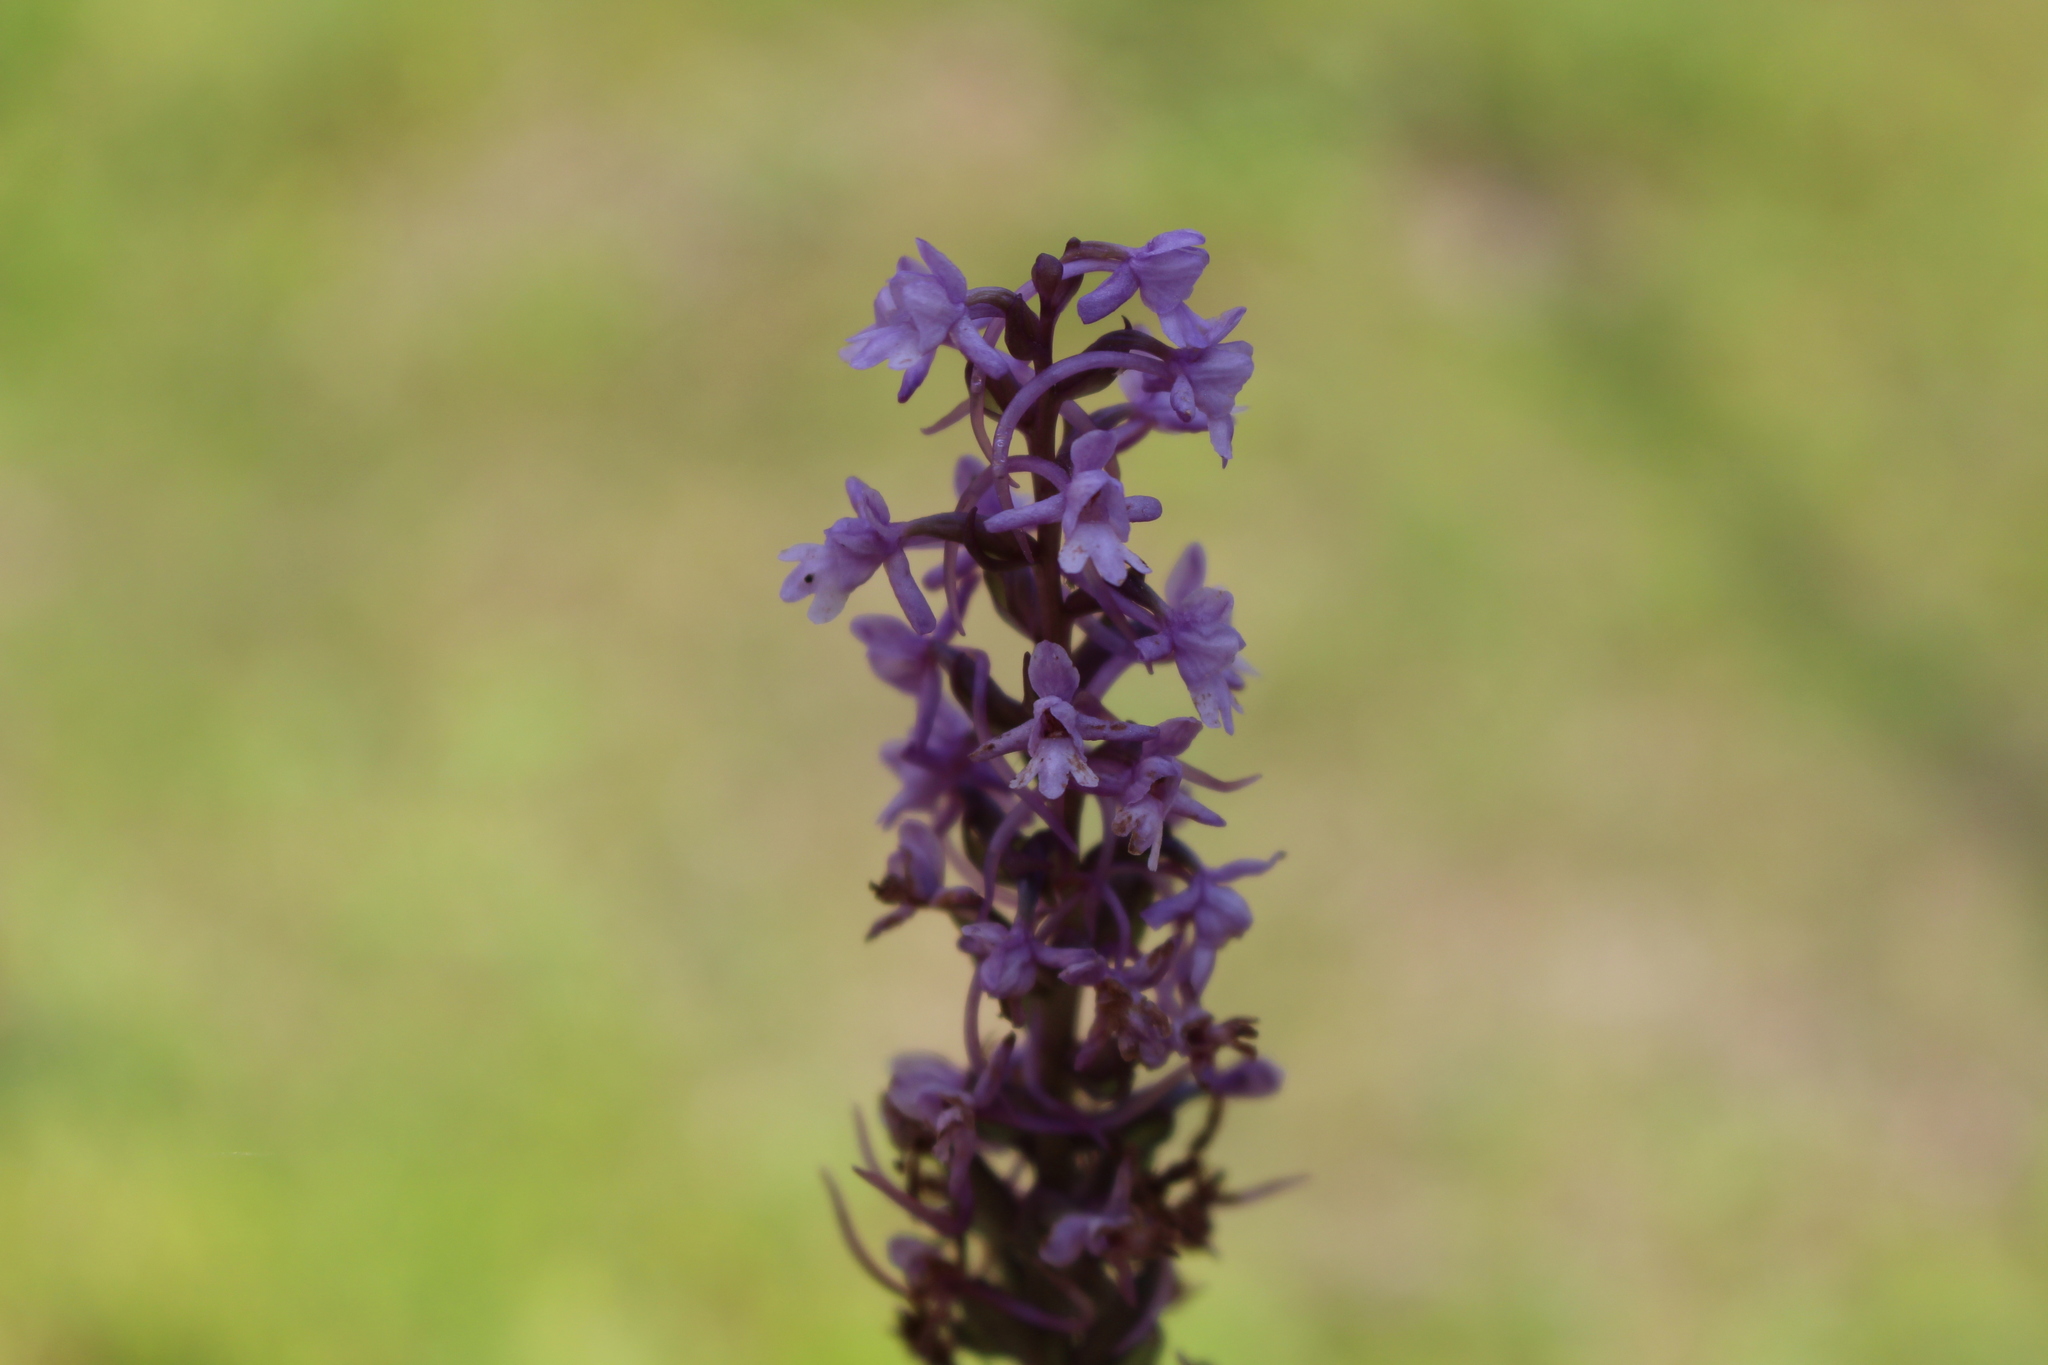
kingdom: Plantae
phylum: Tracheophyta
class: Liliopsida
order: Asparagales
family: Orchidaceae
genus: Gymnadenia
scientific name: Gymnadenia conopsea
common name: Fragrant orchid
